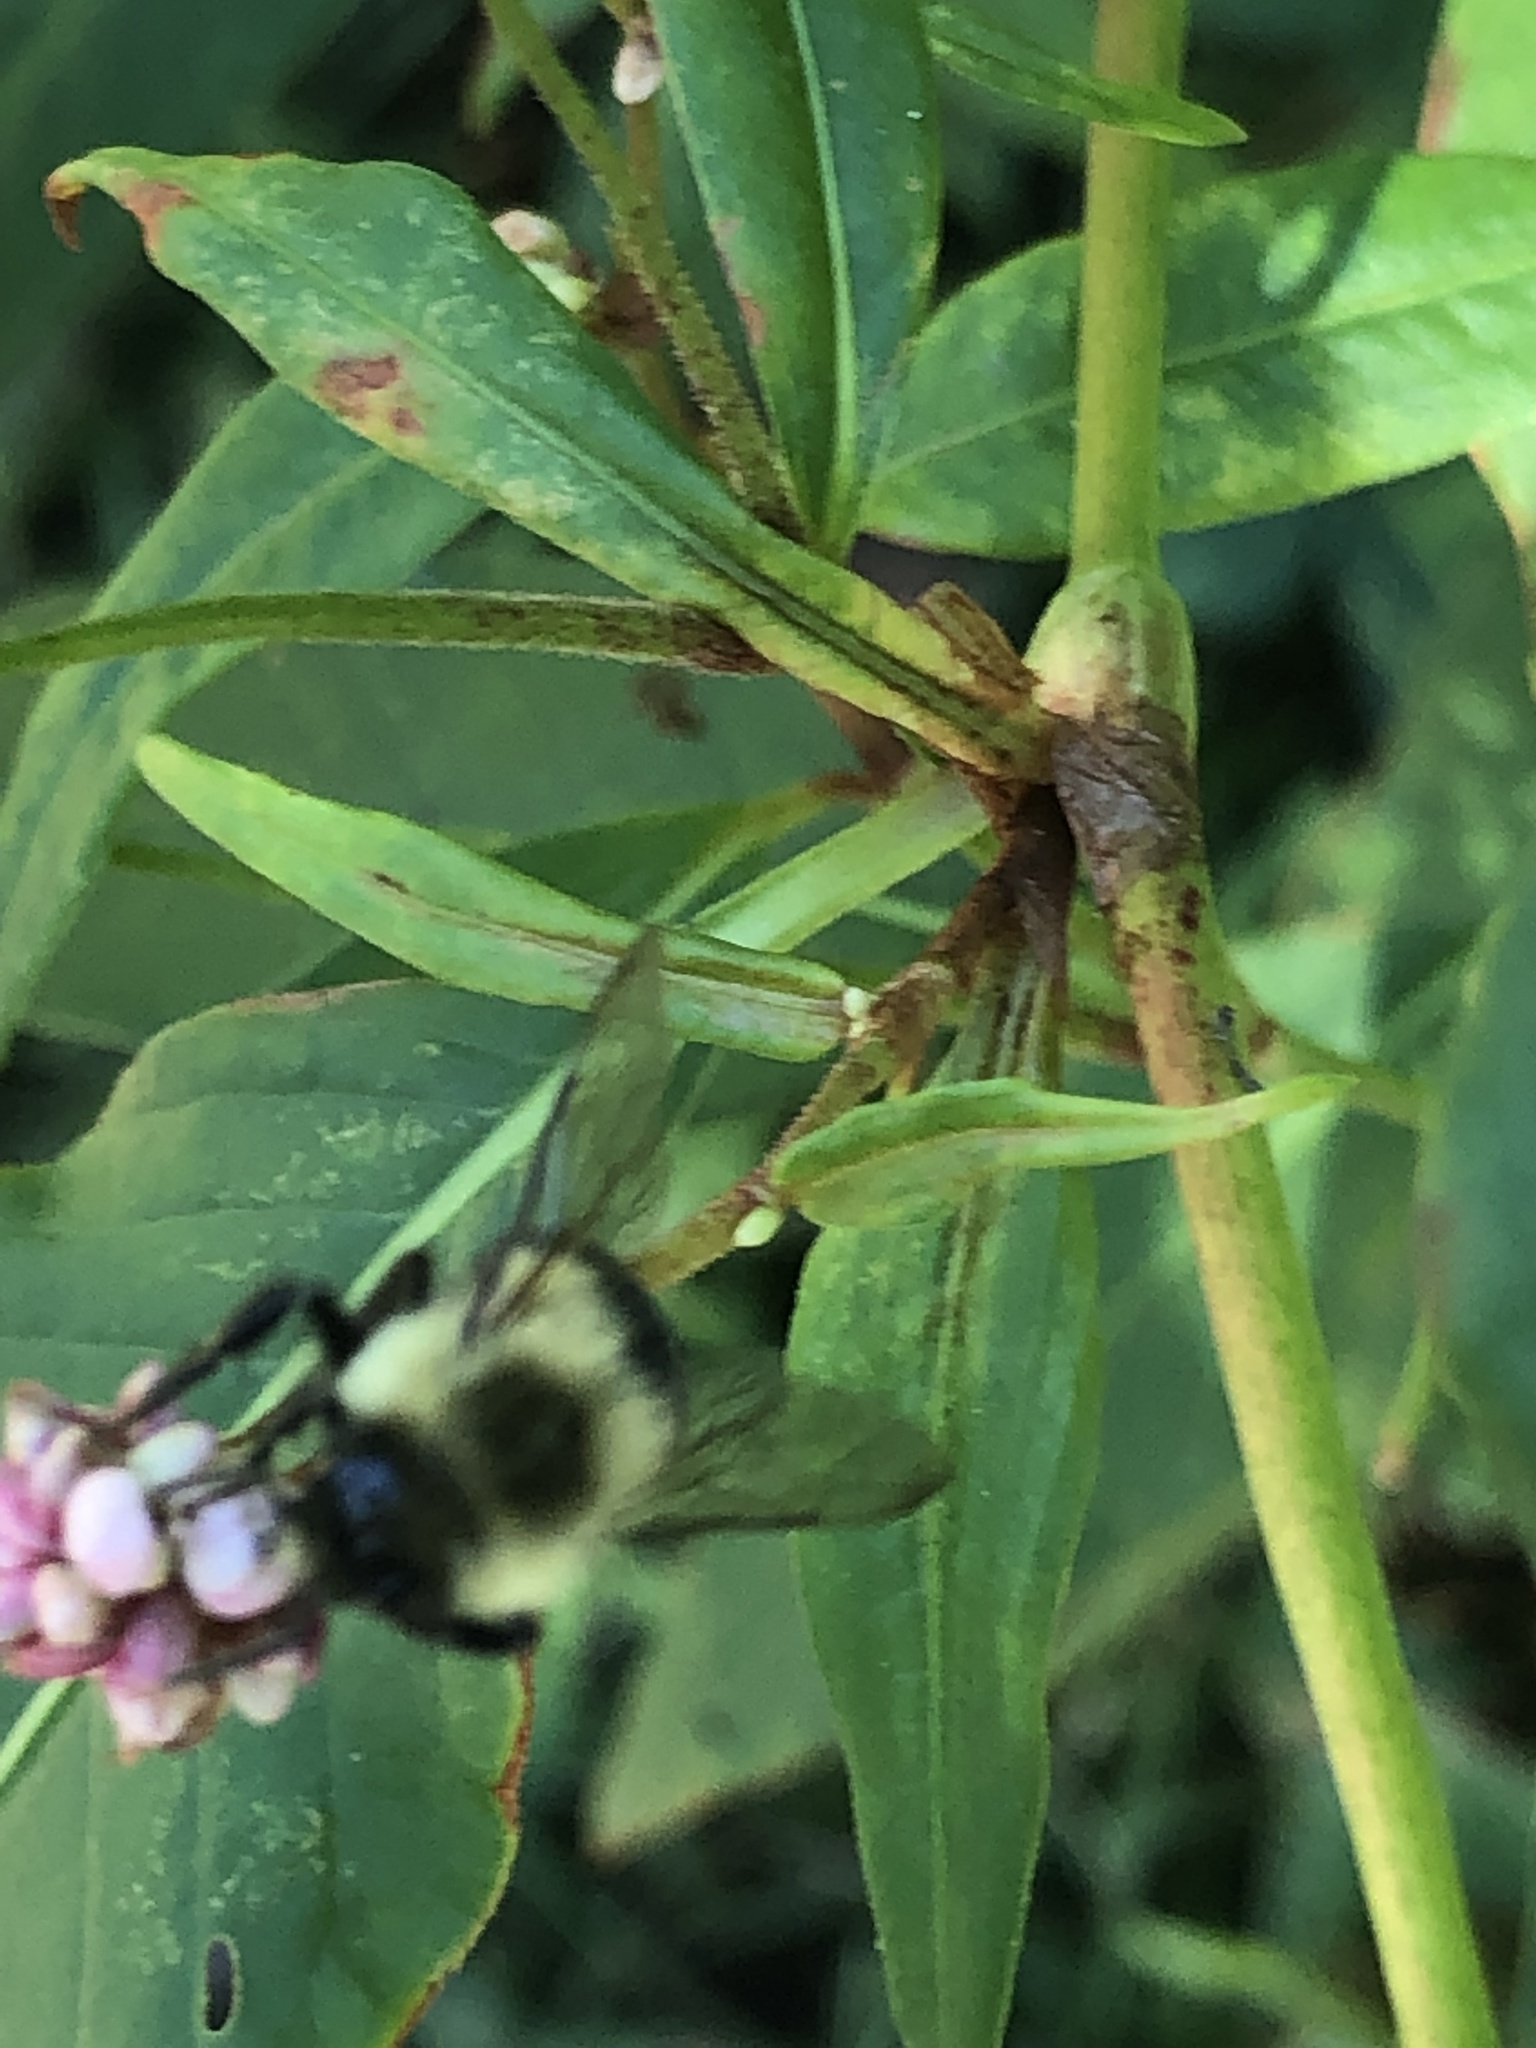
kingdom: Animalia
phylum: Arthropoda
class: Insecta
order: Hymenoptera
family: Apidae
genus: Bombus
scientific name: Bombus impatiens
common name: Common eastern bumble bee
